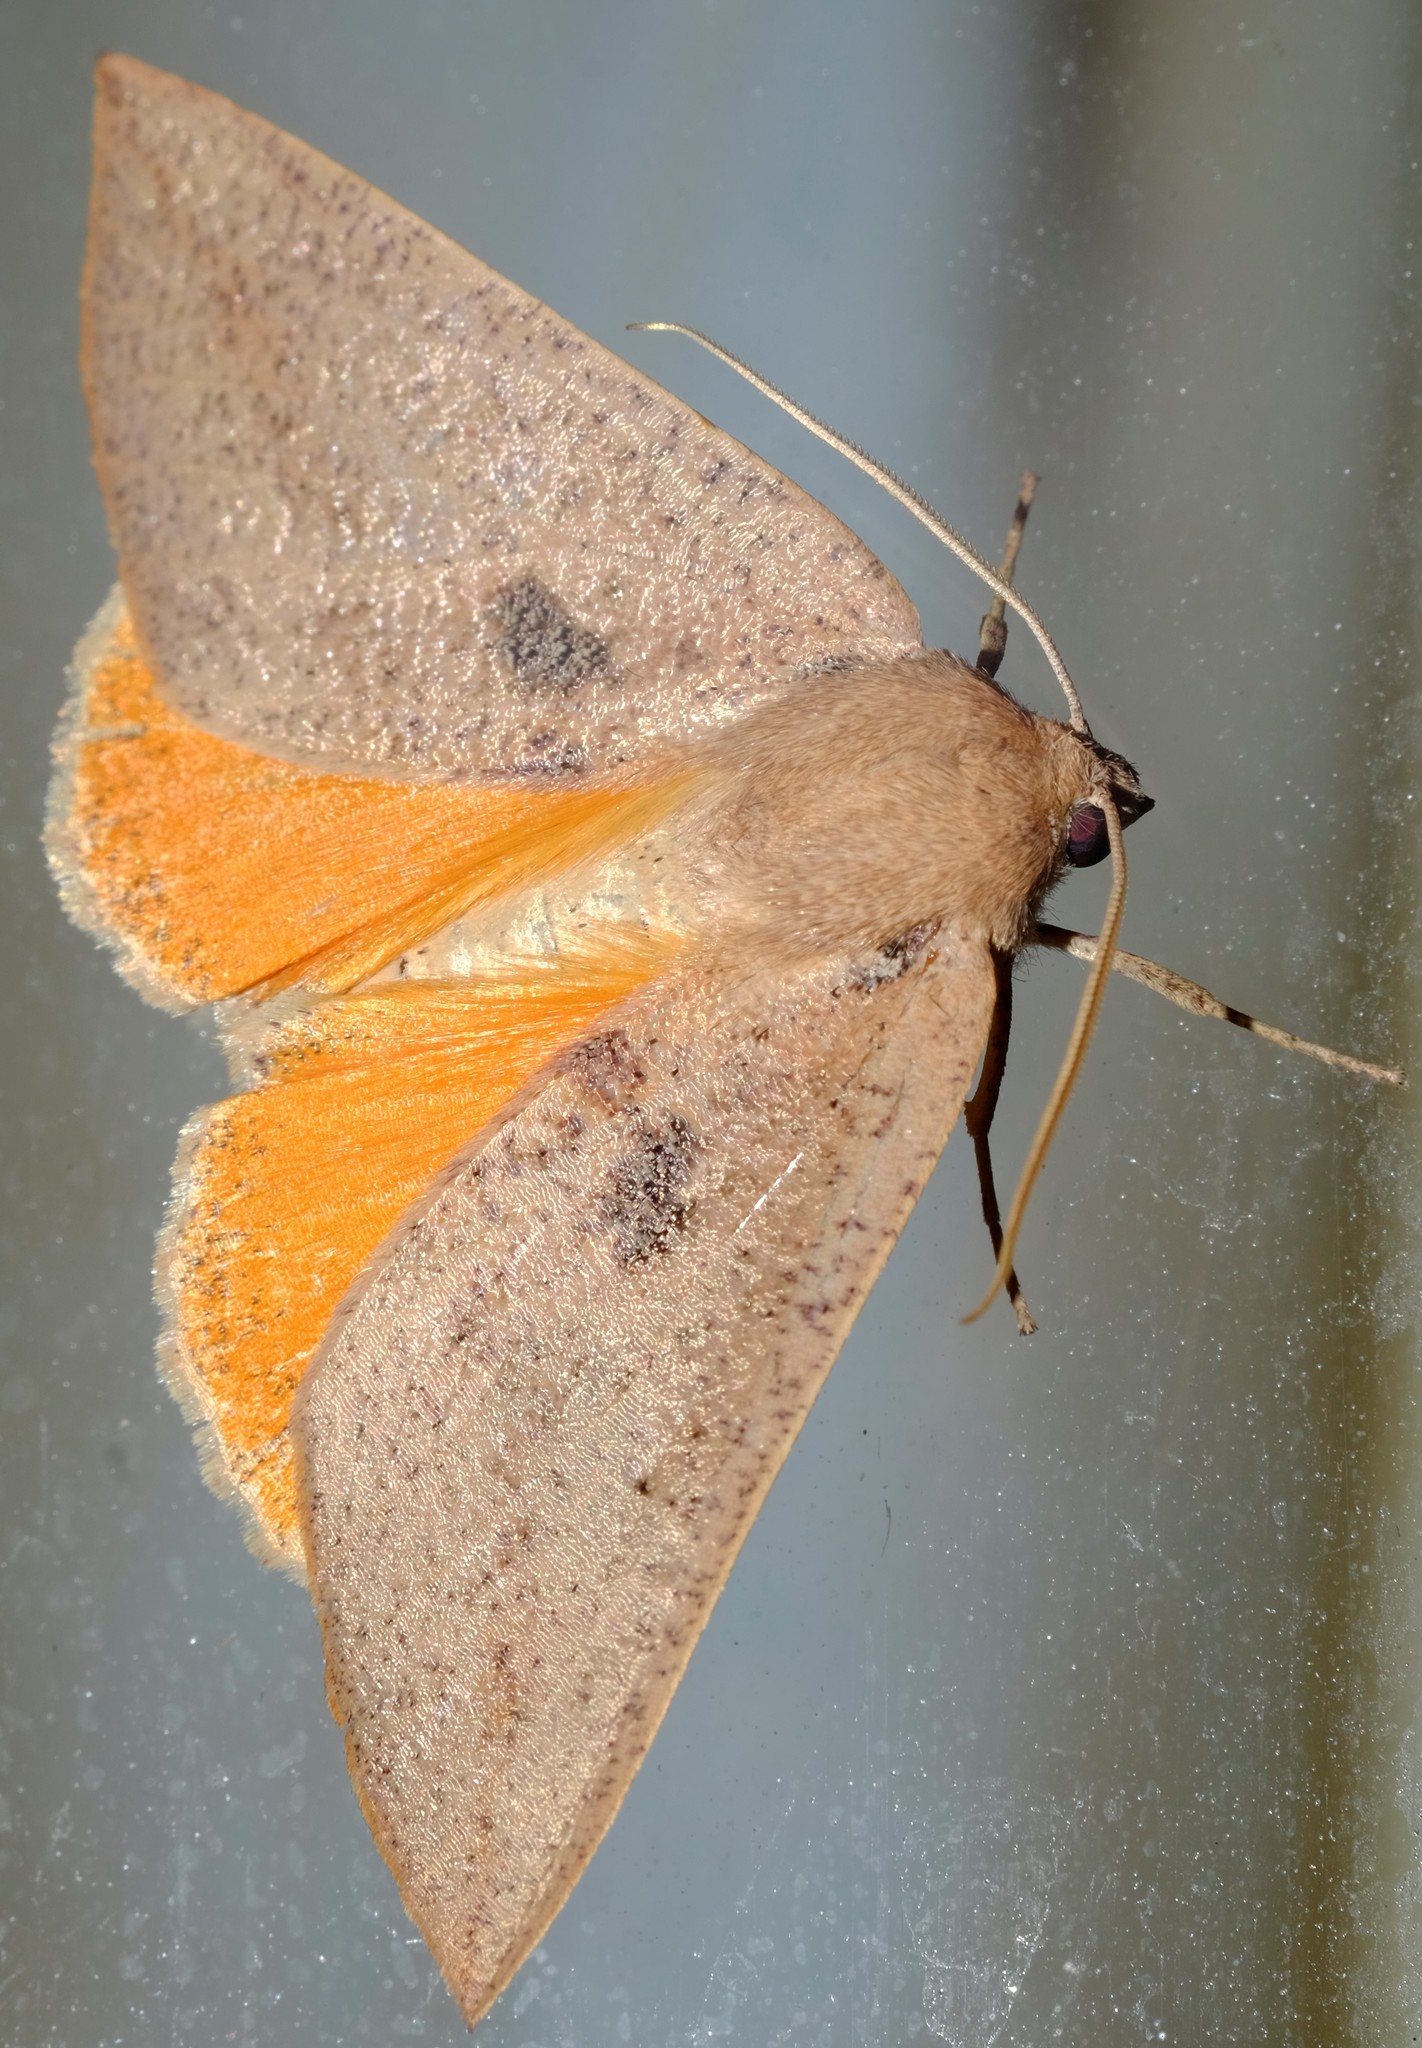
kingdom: Animalia
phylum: Arthropoda
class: Insecta
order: Lepidoptera
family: Geometridae
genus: Mnesampela
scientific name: Mnesampela heliochrysa
